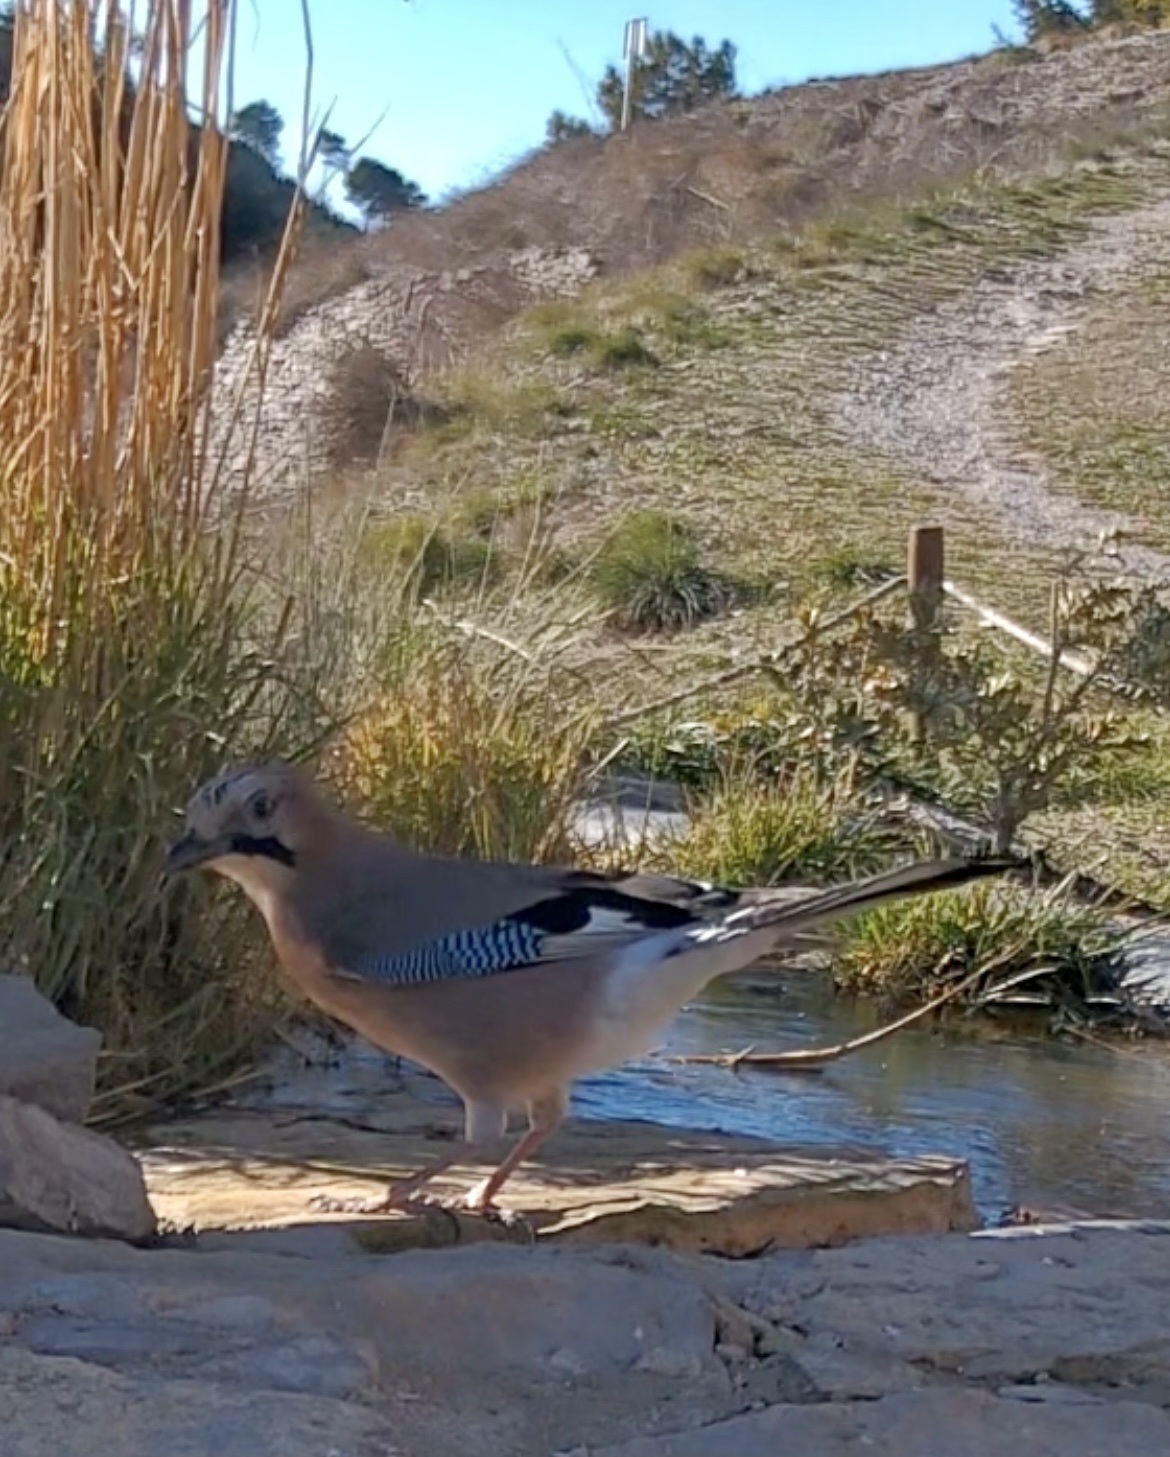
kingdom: Animalia
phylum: Chordata
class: Aves
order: Passeriformes
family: Corvidae
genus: Garrulus
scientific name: Garrulus glandarius
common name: Eurasian jay
